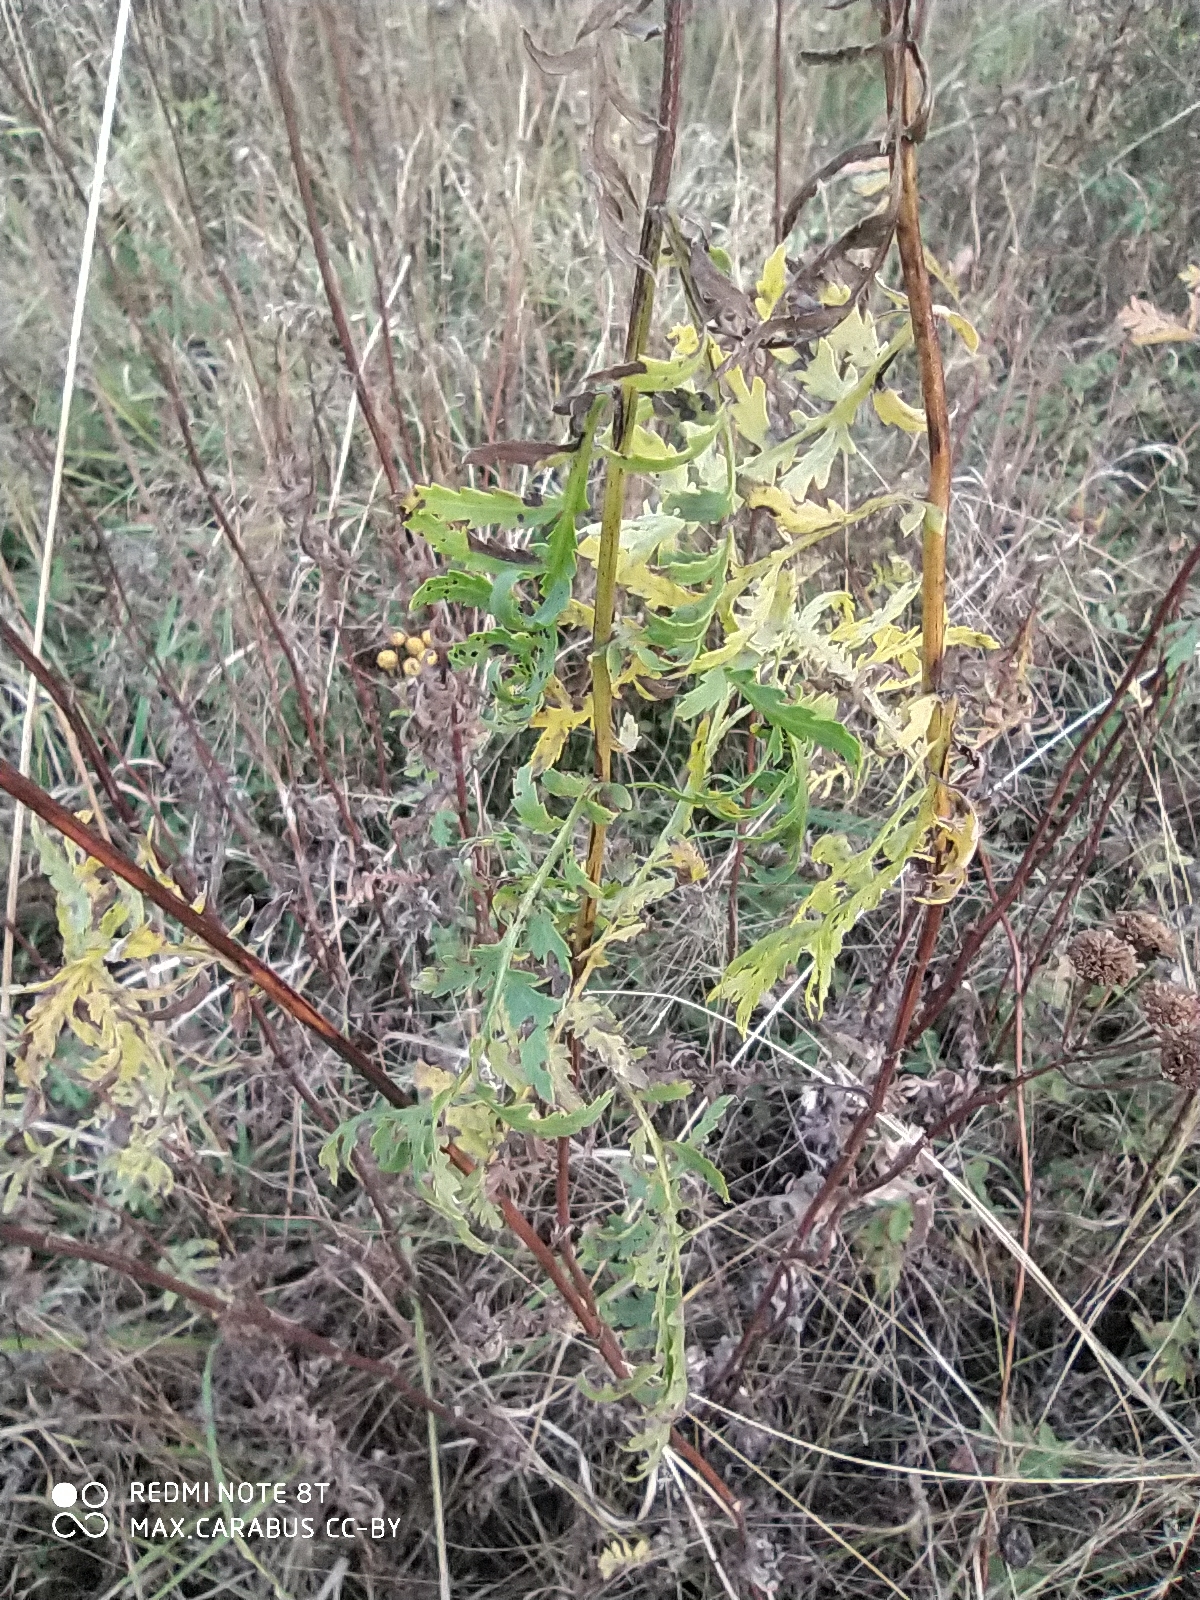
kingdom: Plantae
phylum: Tracheophyta
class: Magnoliopsida
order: Asterales
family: Asteraceae
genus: Tanacetum
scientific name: Tanacetum vulgare
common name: Common tansy
